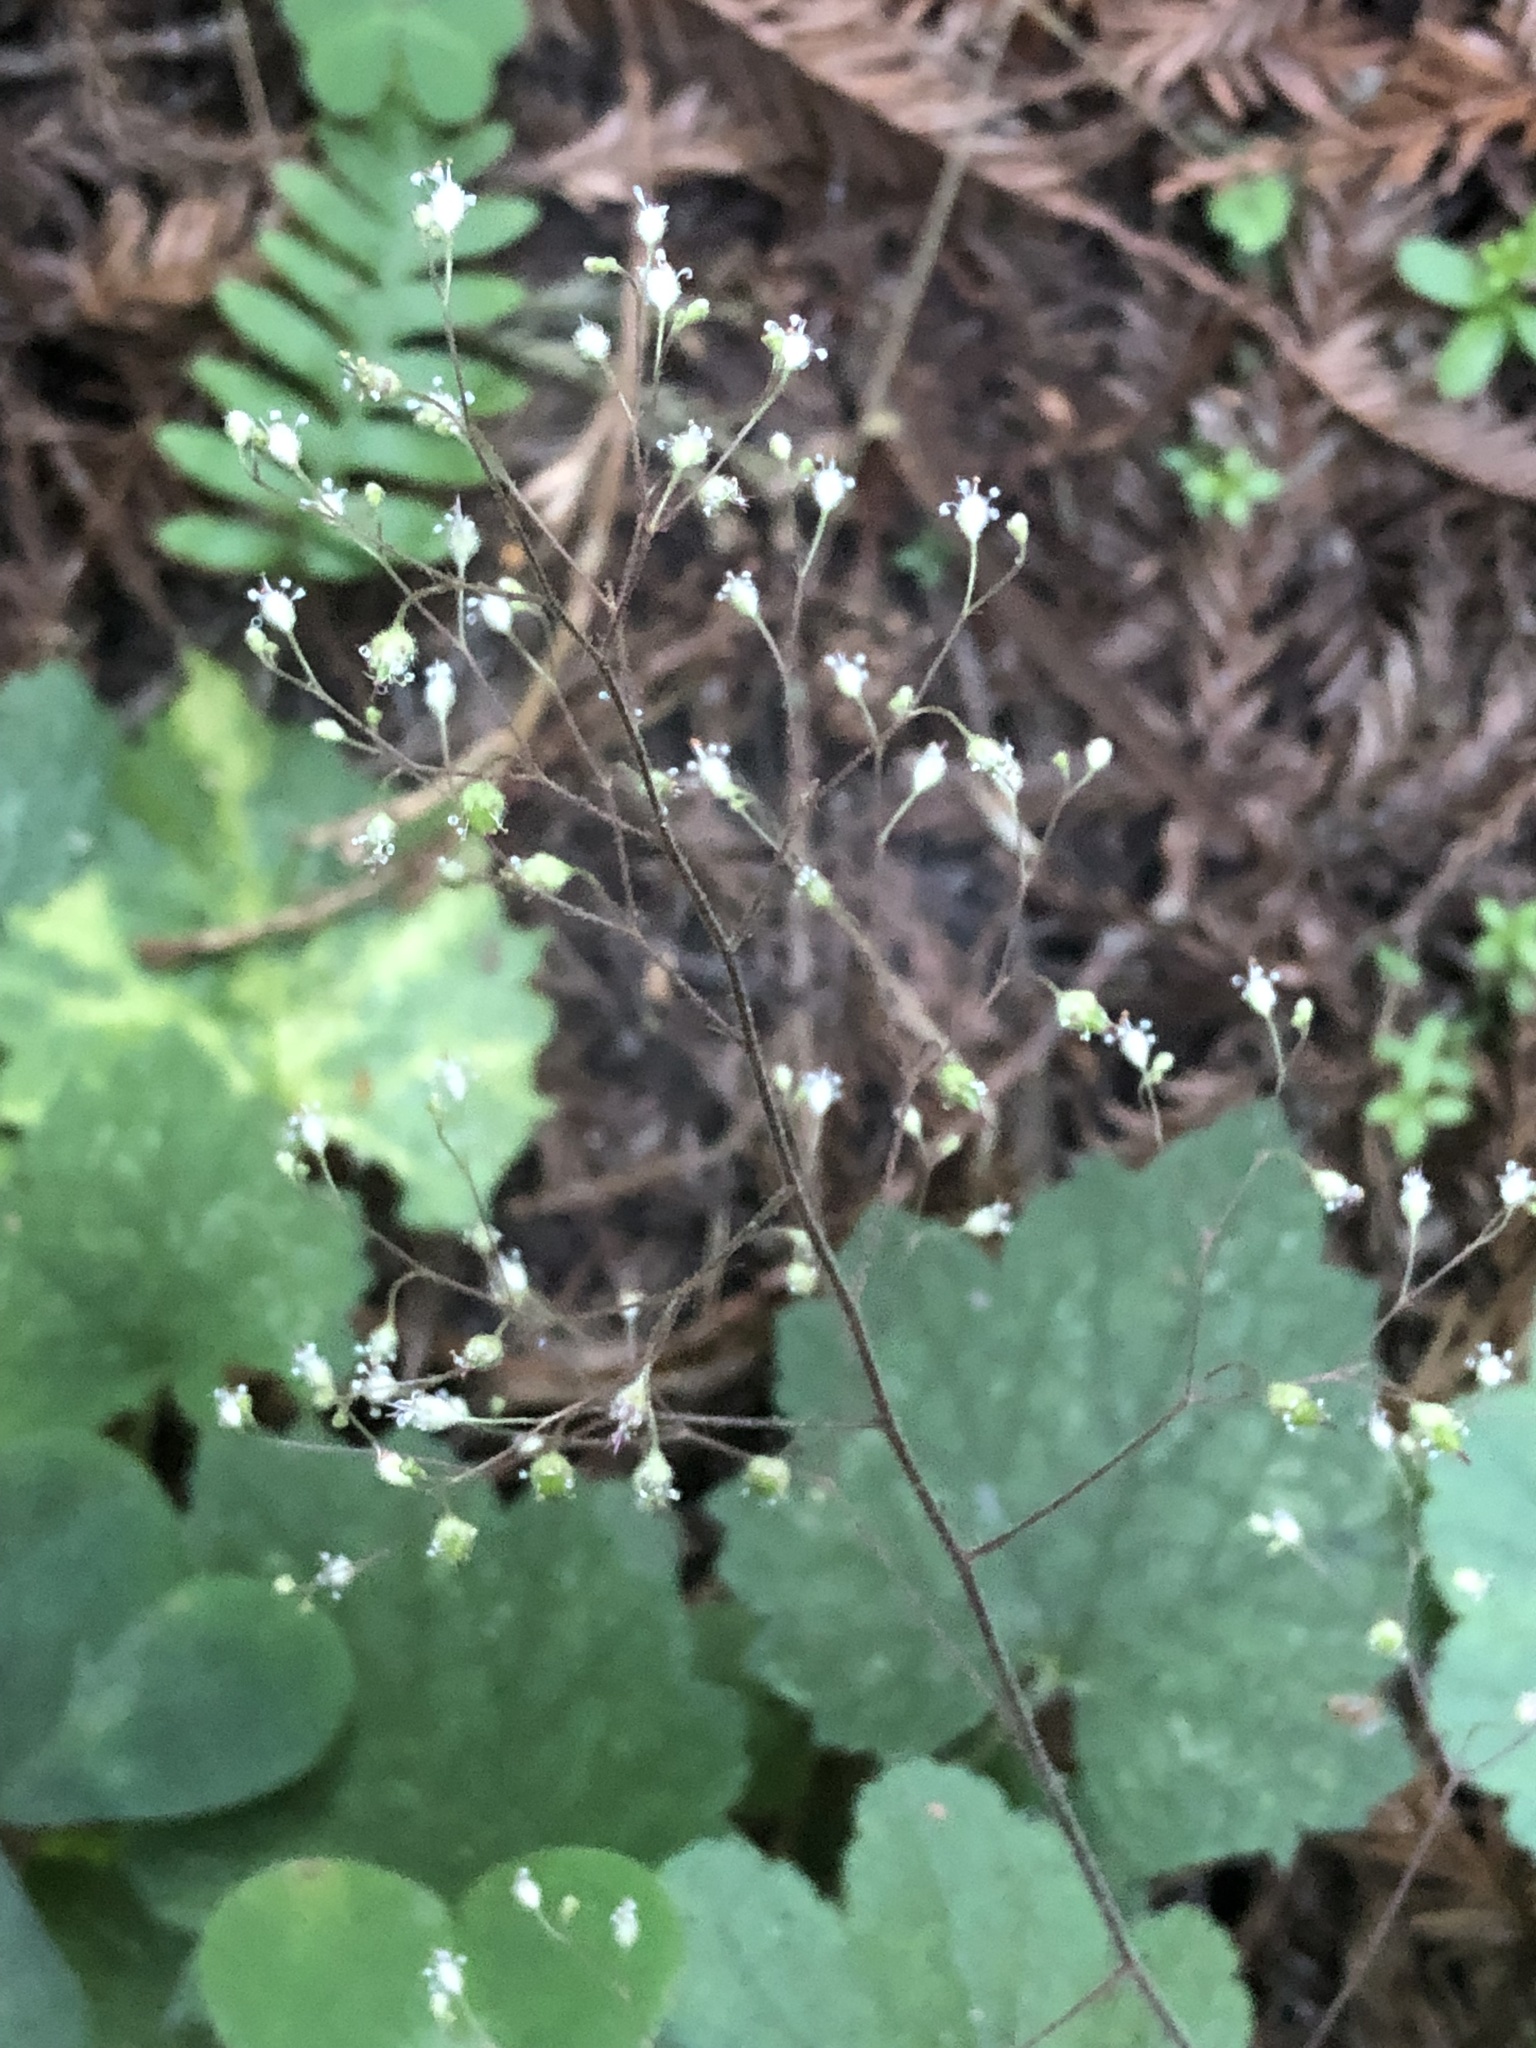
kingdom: Plantae
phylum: Tracheophyta
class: Magnoliopsida
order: Saxifragales
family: Saxifragaceae
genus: Heuchera
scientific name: Heuchera micrantha
